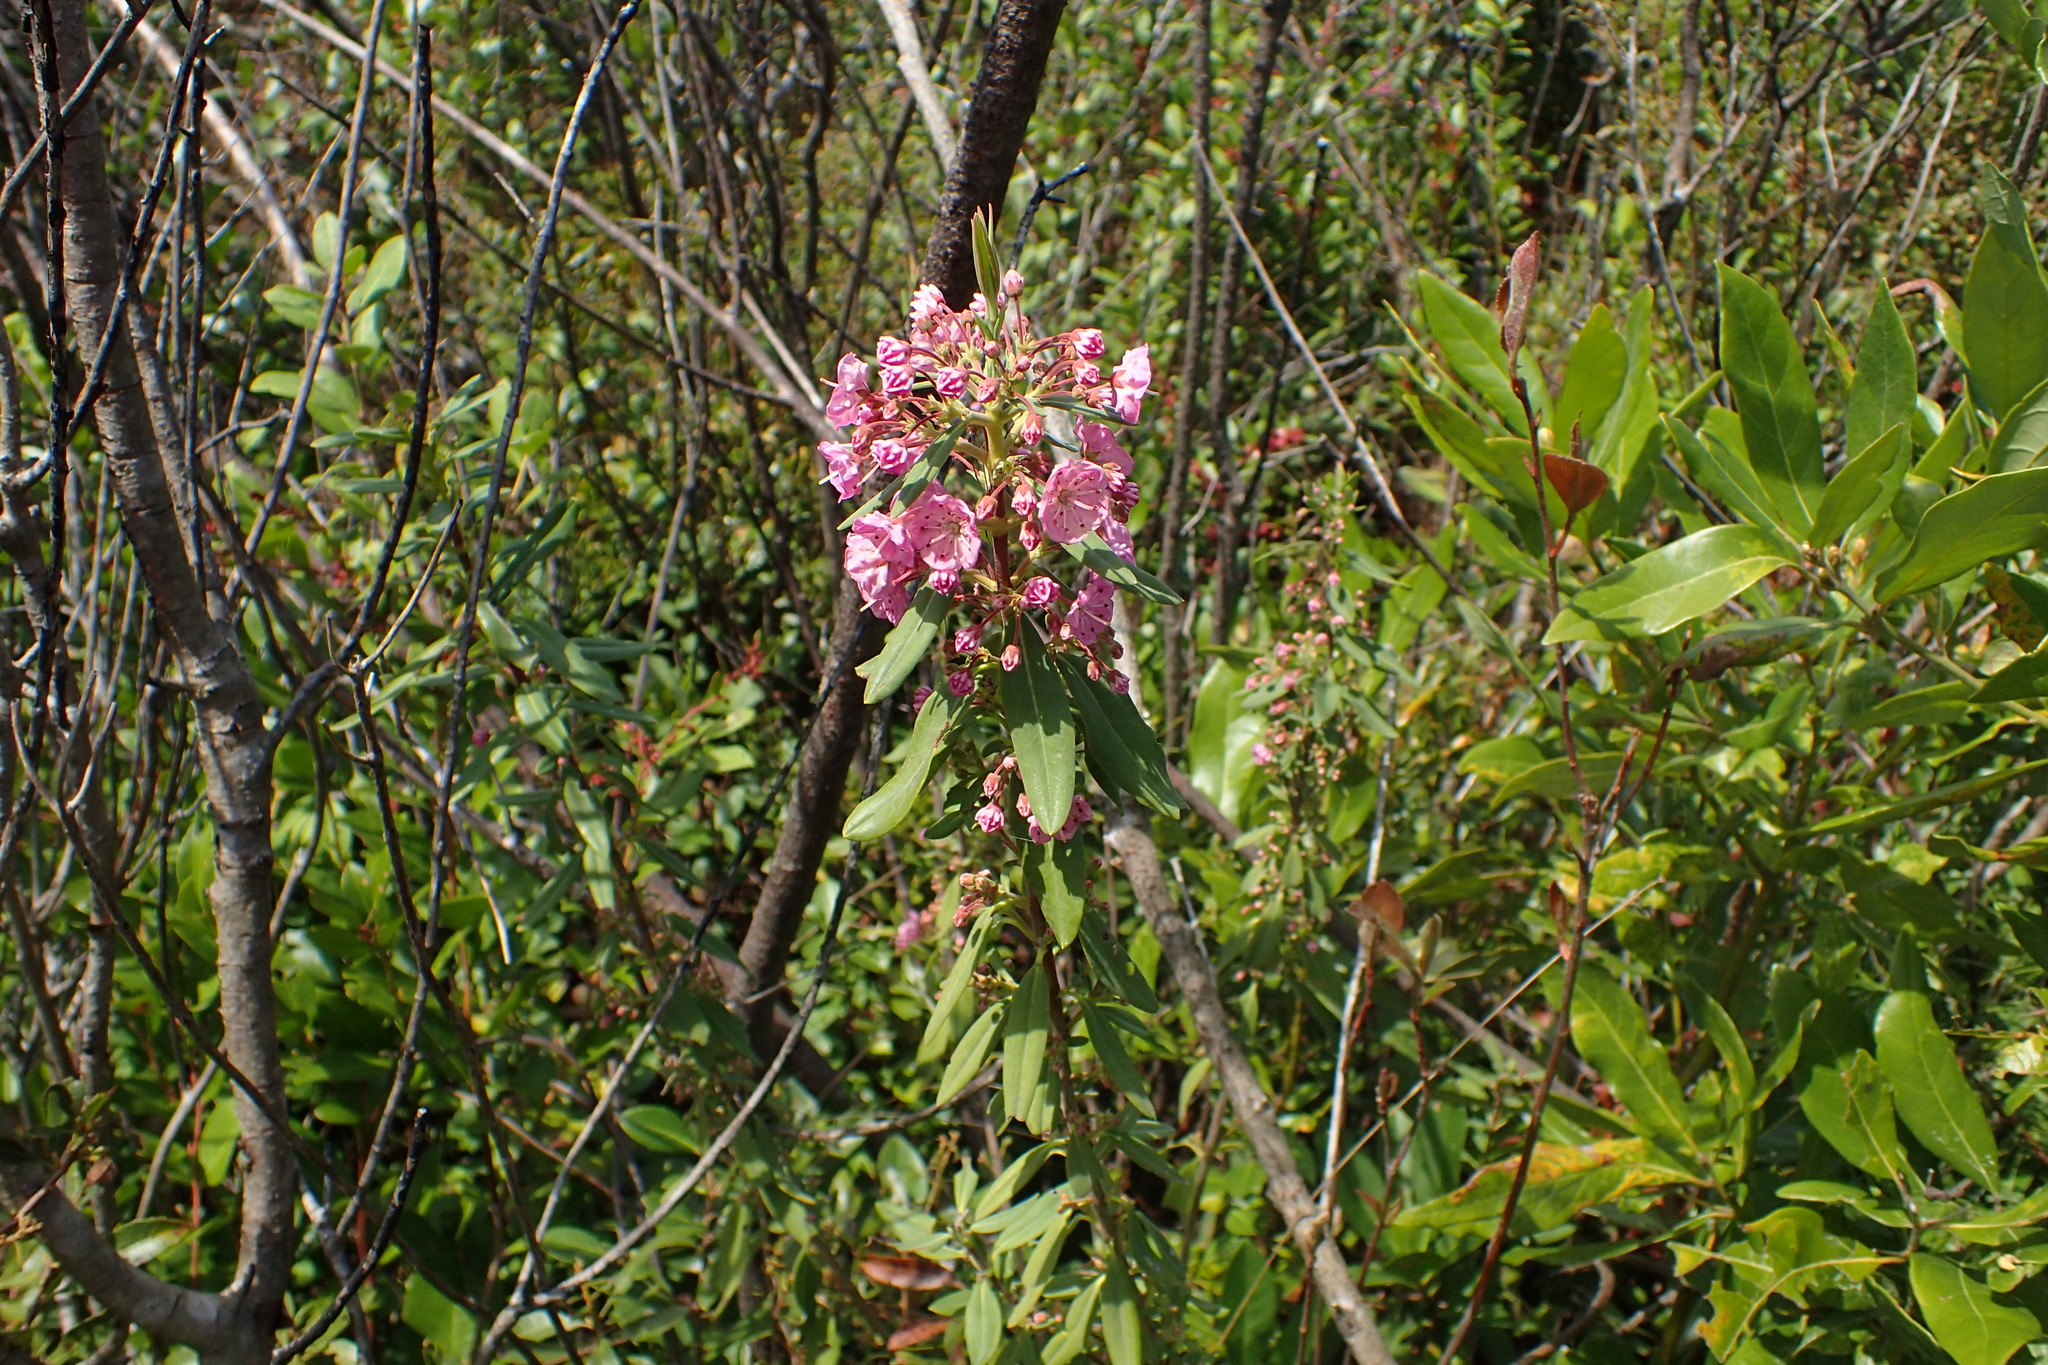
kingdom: Plantae
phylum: Tracheophyta
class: Magnoliopsida
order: Ericales
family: Ericaceae
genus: Kalmia
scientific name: Kalmia angustifolia
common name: Sheep-laurel
